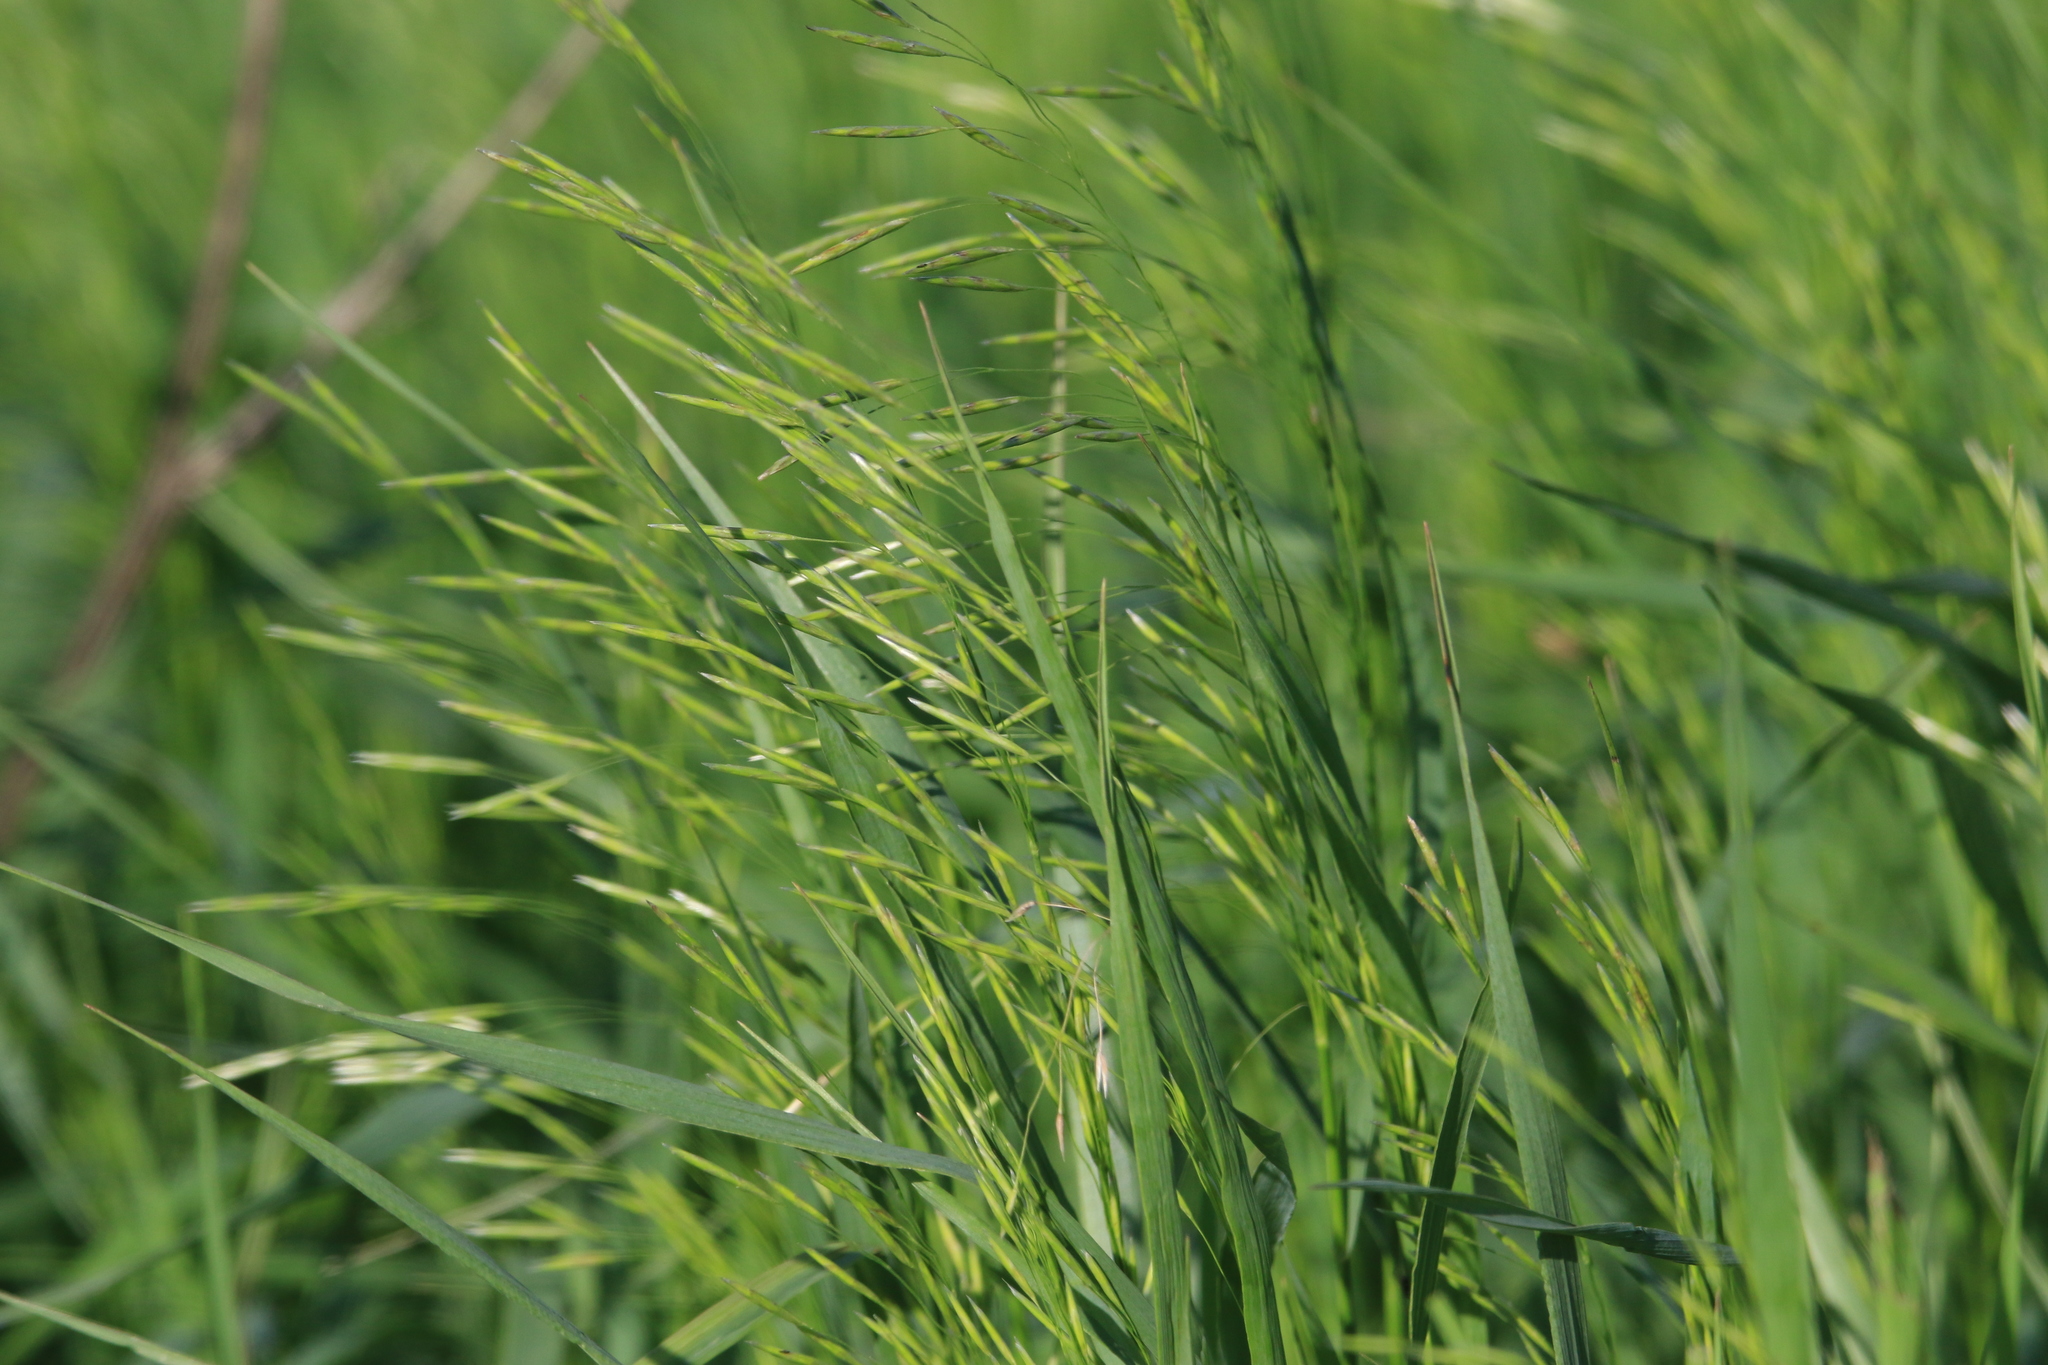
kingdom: Plantae
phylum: Tracheophyta
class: Liliopsida
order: Poales
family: Poaceae
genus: Bromus
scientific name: Bromus inermis
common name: Smooth brome
